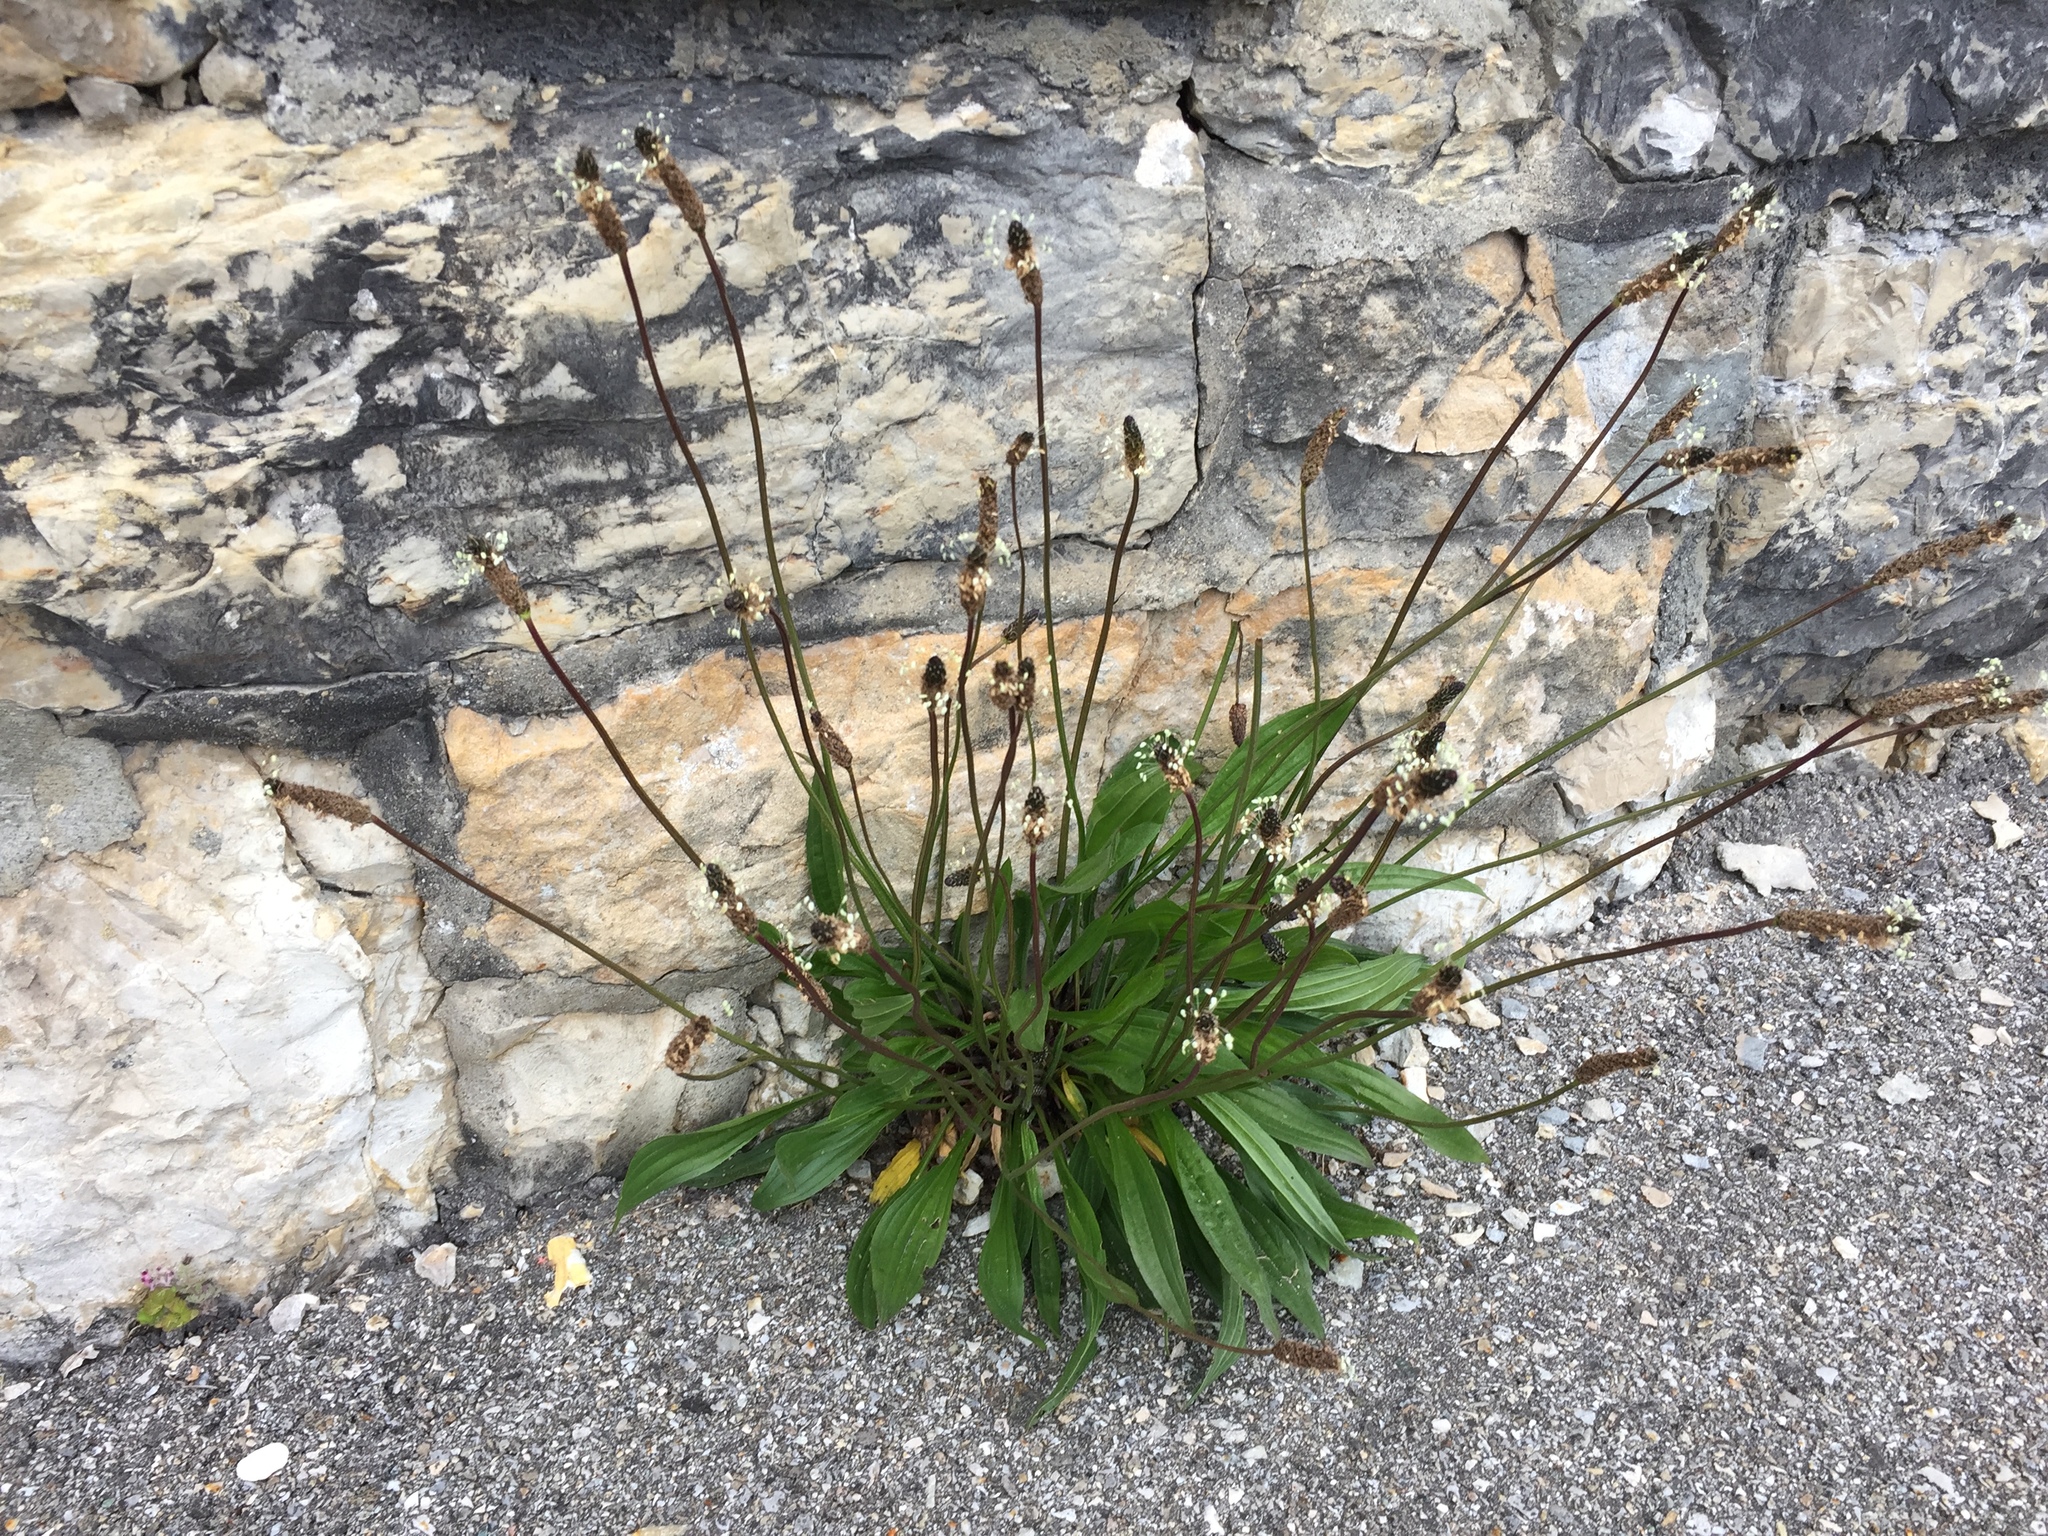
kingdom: Plantae
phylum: Tracheophyta
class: Magnoliopsida
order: Lamiales
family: Plantaginaceae
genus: Plantago
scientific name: Plantago lanceolata
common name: Ribwort plantain
